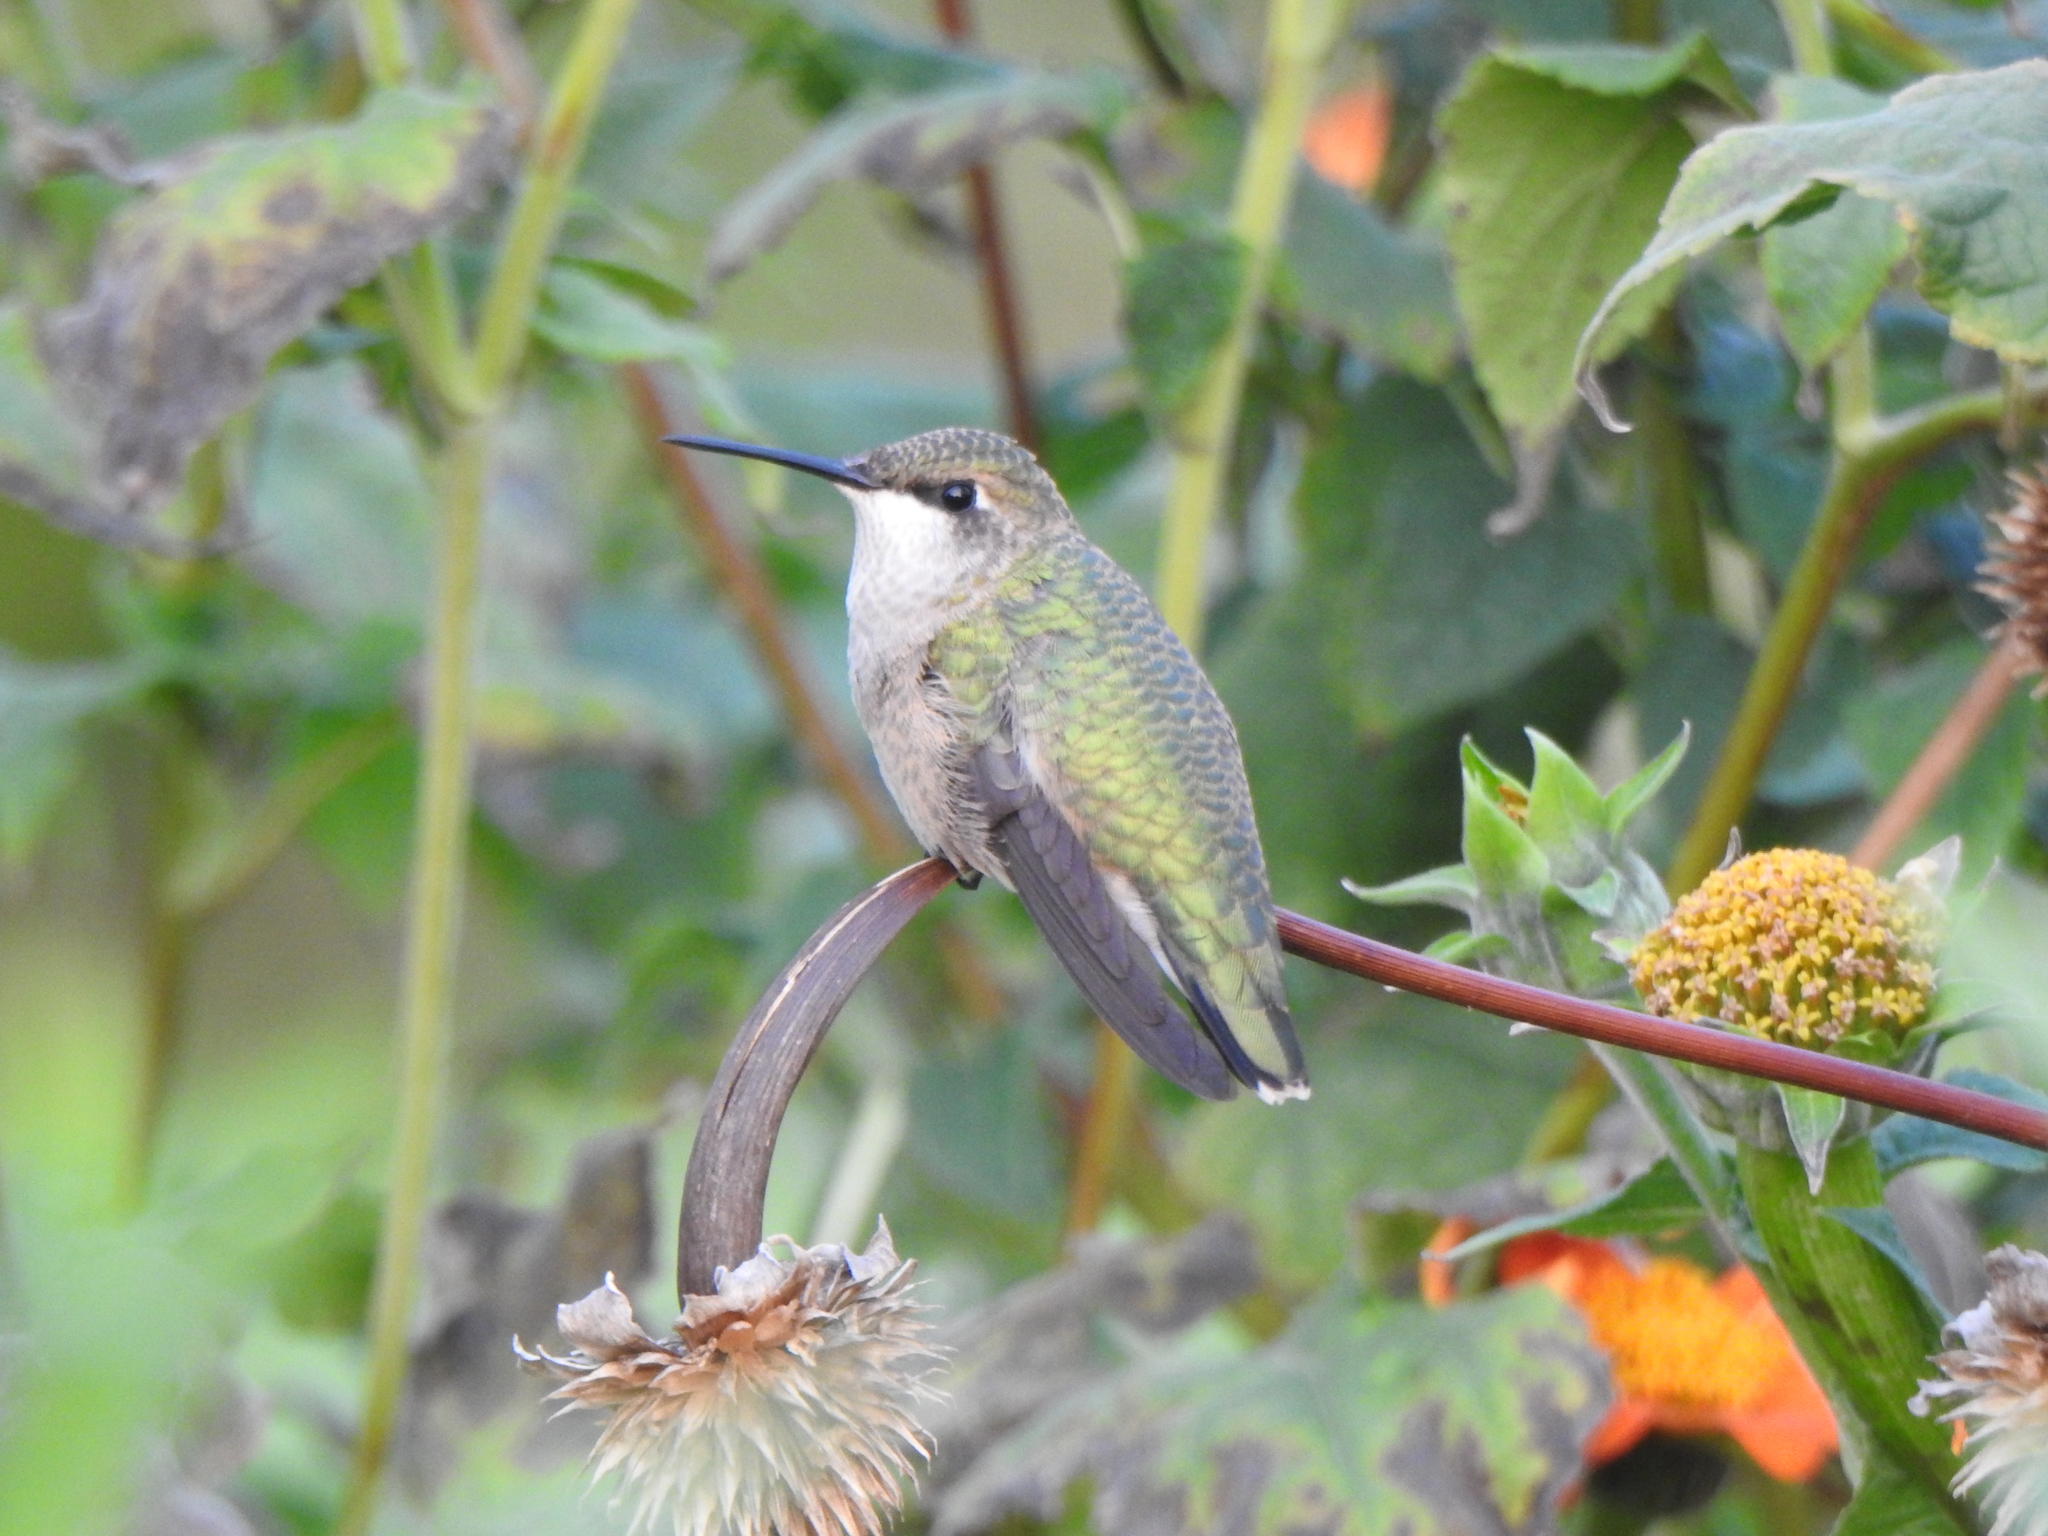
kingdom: Animalia
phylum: Chordata
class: Aves
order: Apodiformes
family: Trochilidae
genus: Archilochus
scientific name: Archilochus colubris
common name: Ruby-throated hummingbird
